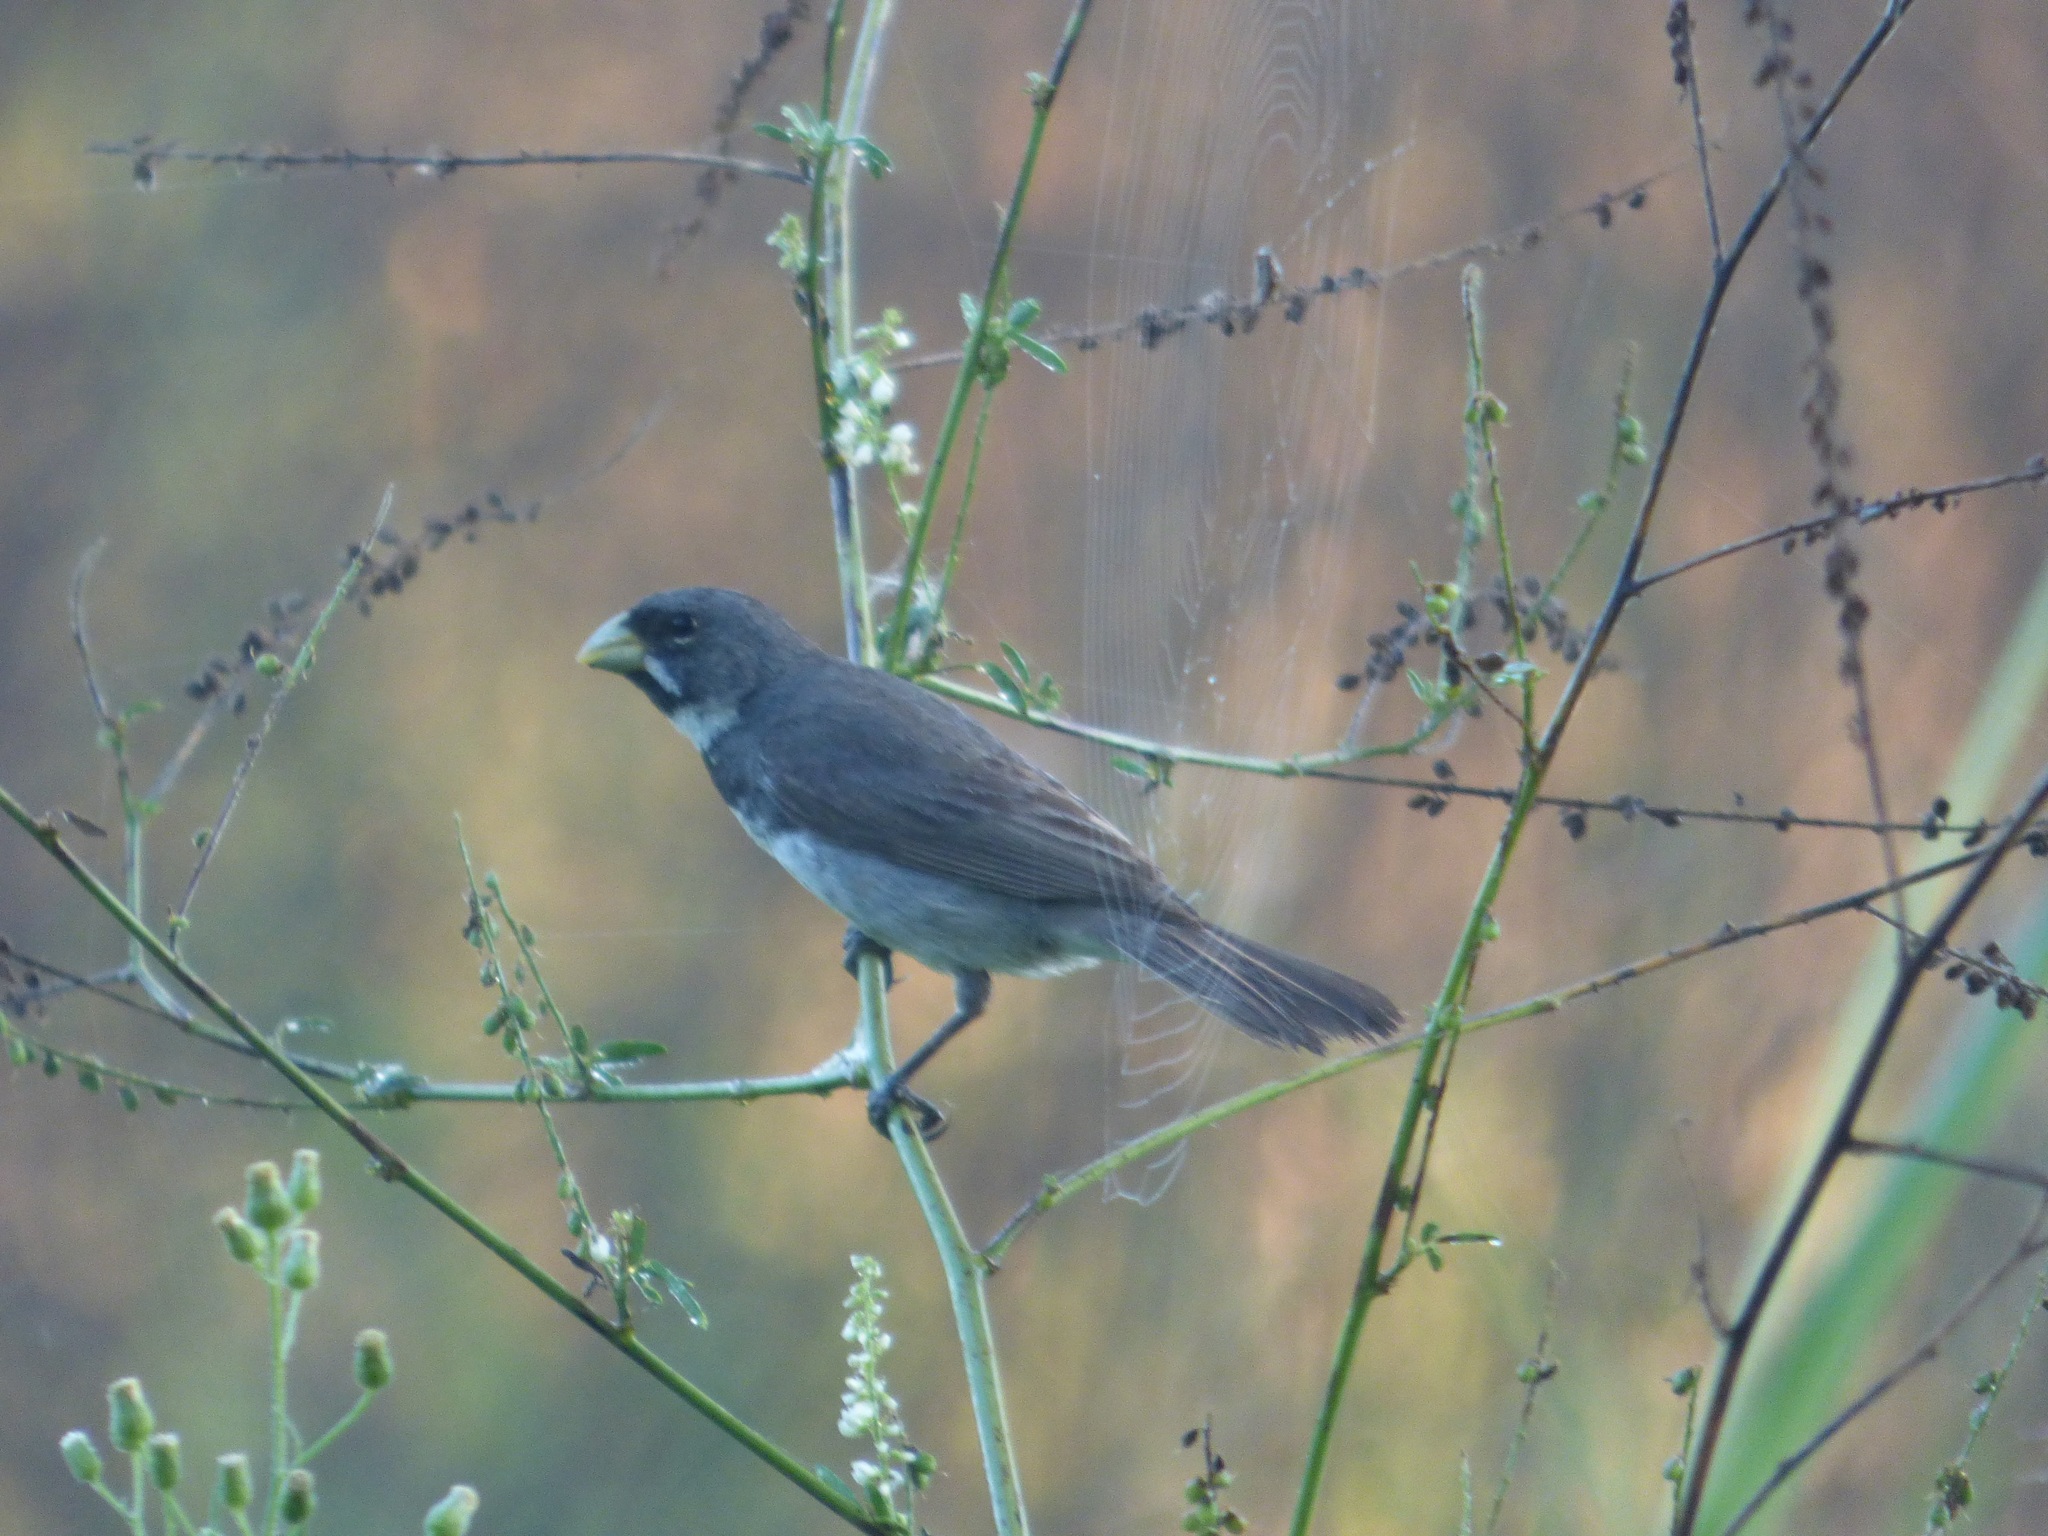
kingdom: Animalia
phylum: Chordata
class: Aves
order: Passeriformes
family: Thraupidae
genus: Sporophila
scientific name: Sporophila caerulescens
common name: Double-collared seedeater
